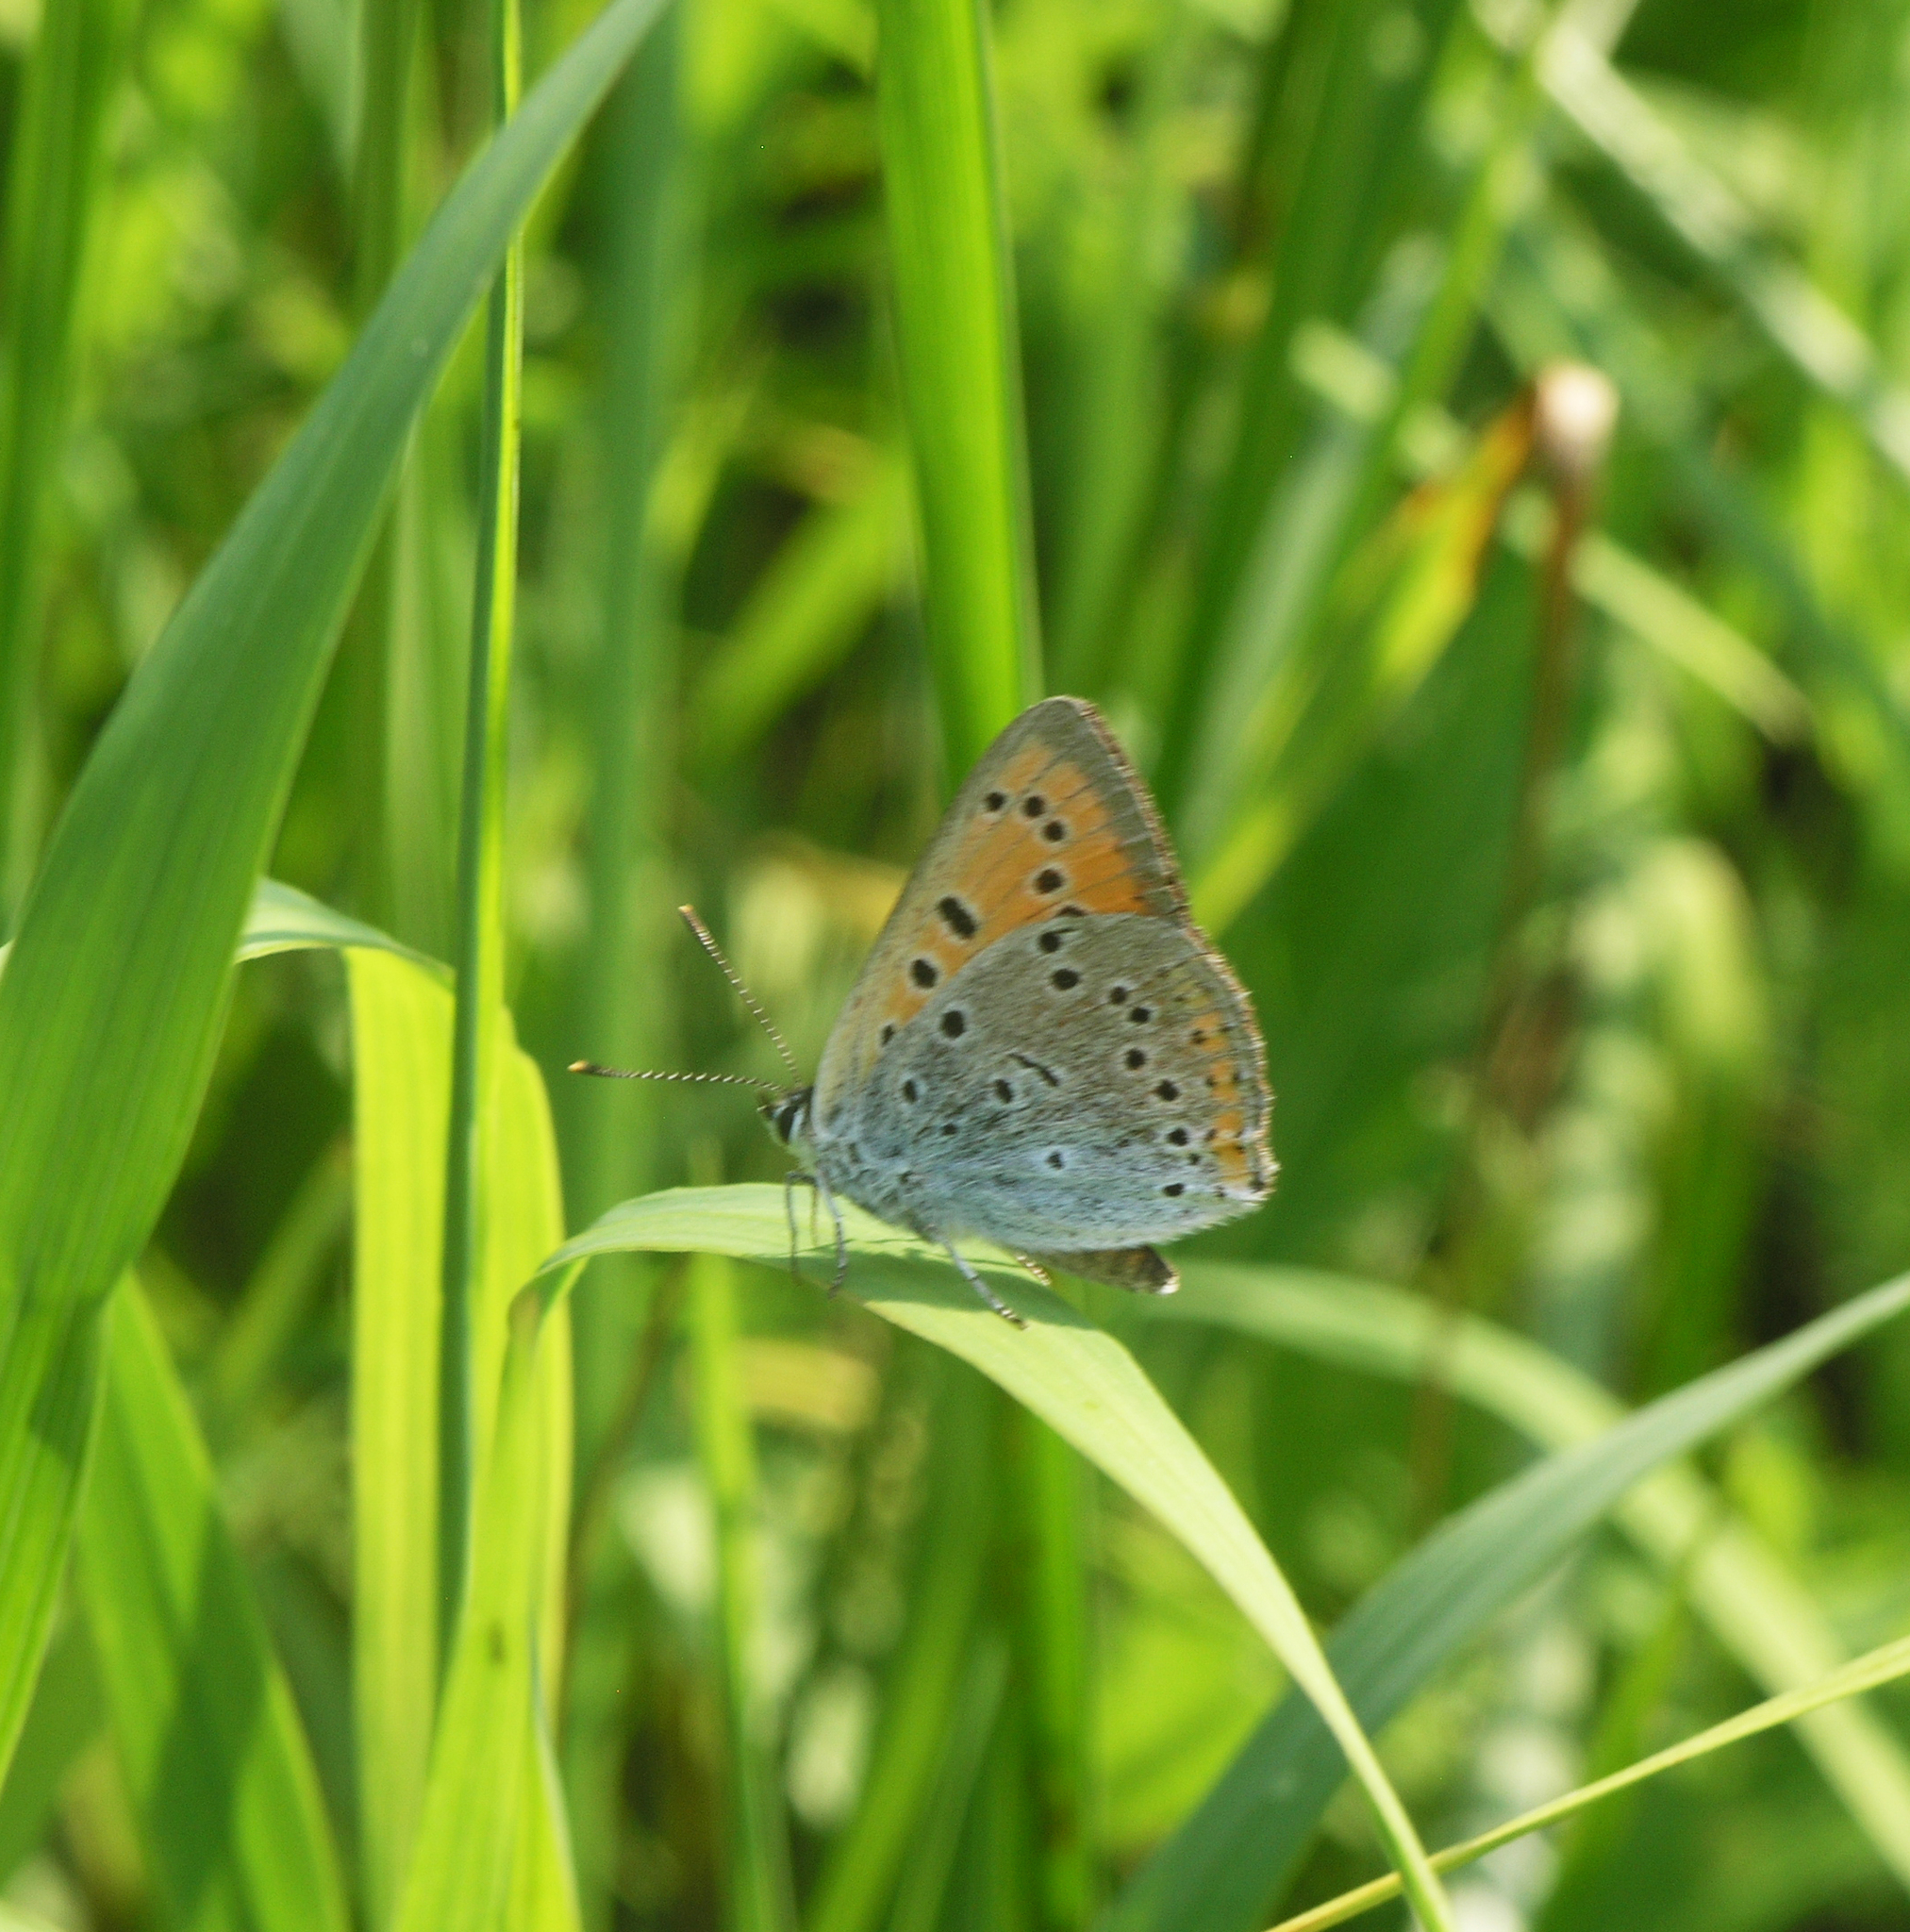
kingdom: Animalia
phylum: Arthropoda
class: Insecta
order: Lepidoptera
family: Lycaenidae
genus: Lycaena
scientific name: Lycaena dispar
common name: Large copper
